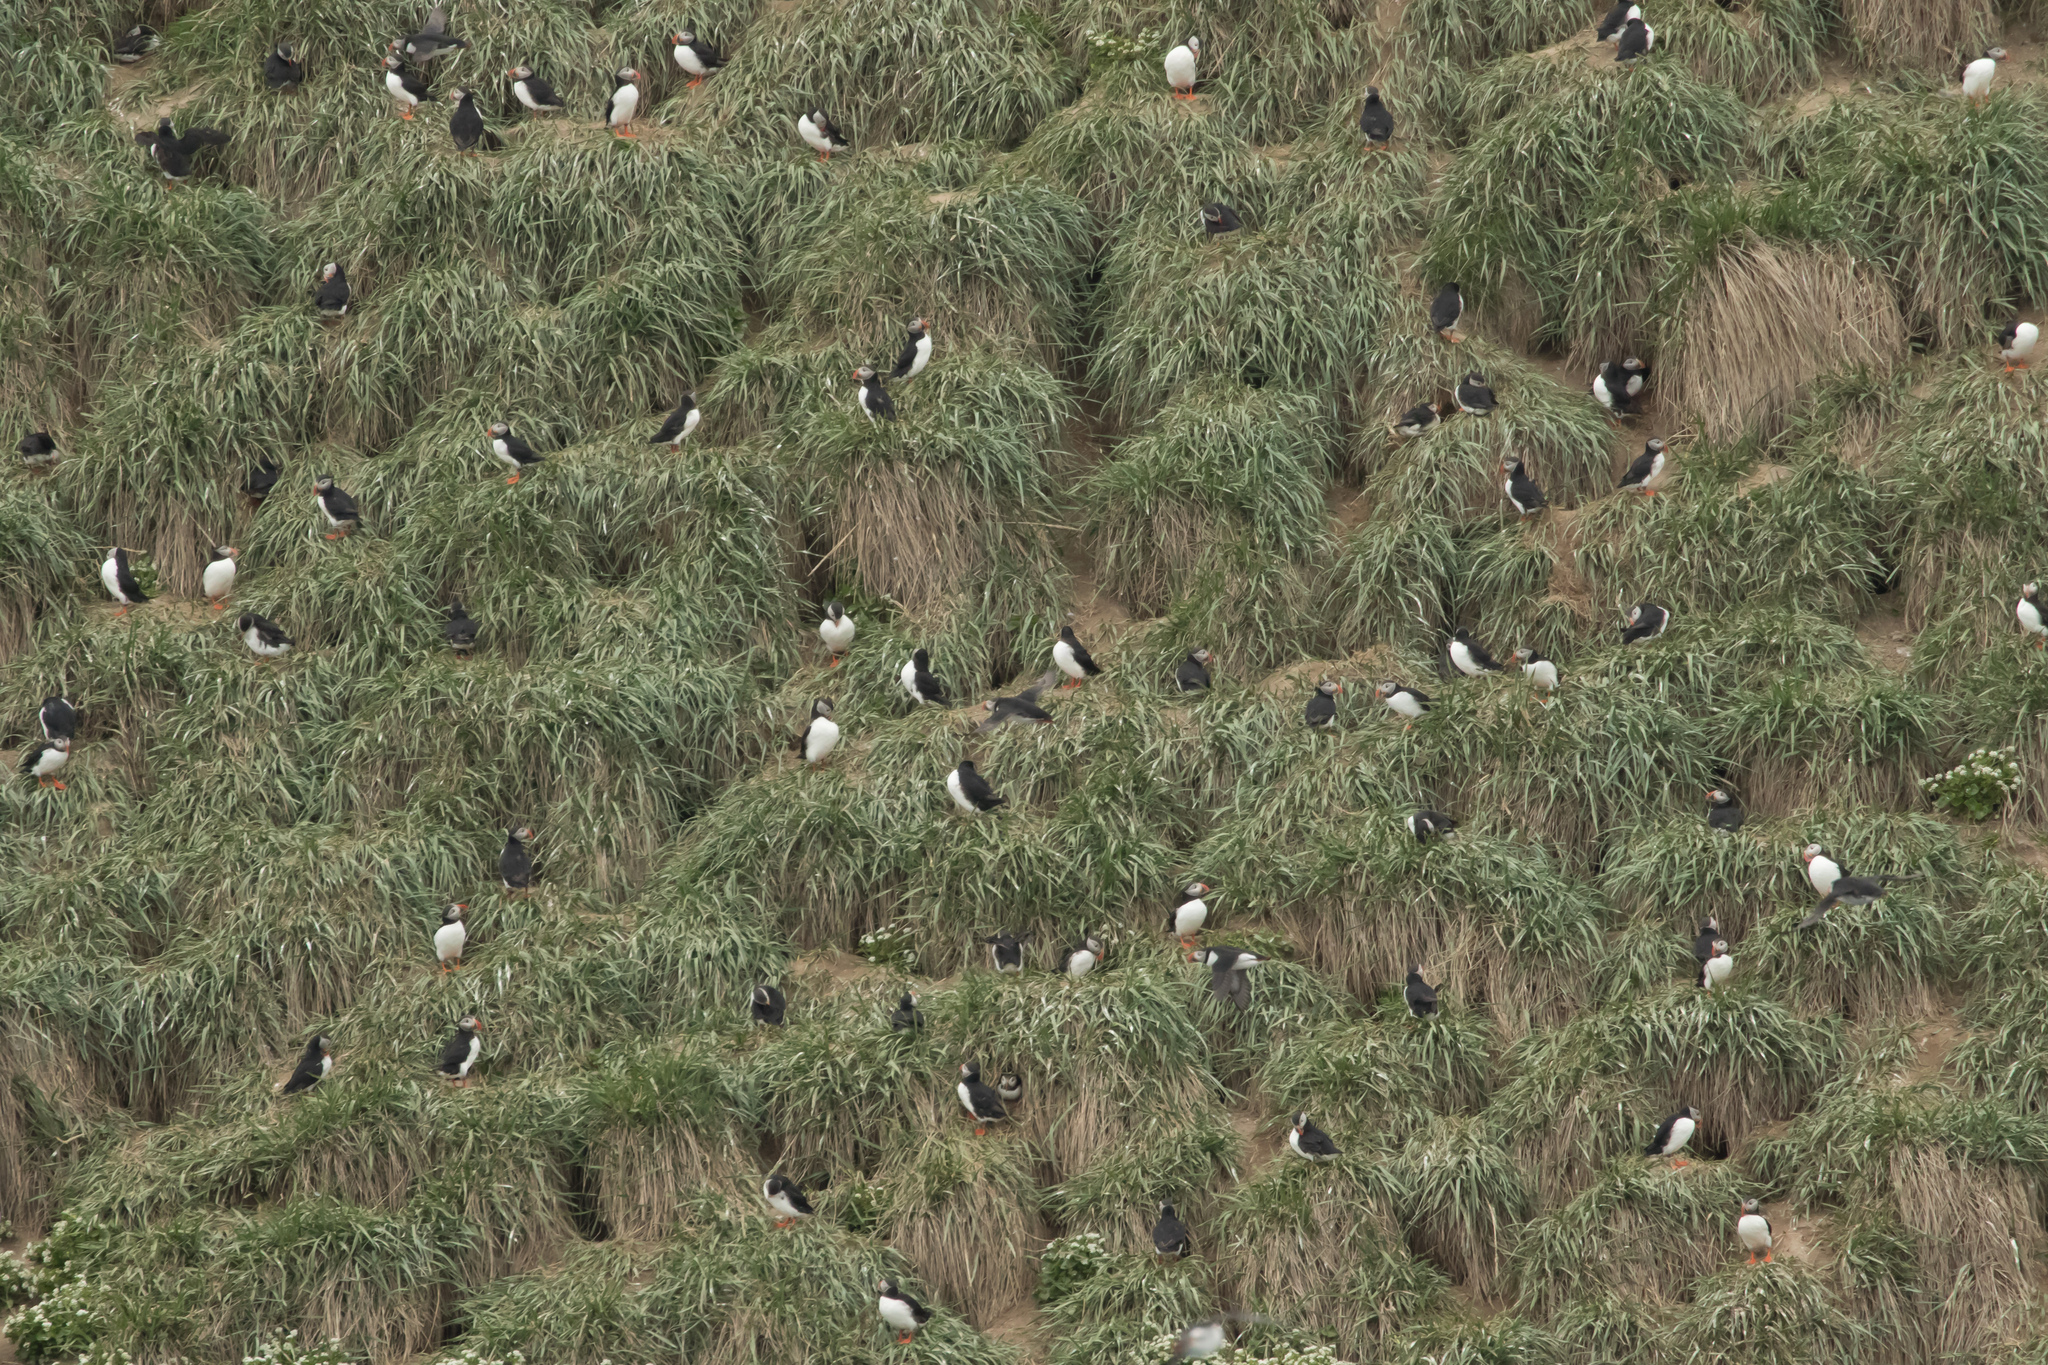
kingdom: Animalia
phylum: Chordata
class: Aves
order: Charadriiformes
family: Alcidae
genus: Fratercula
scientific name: Fratercula arctica
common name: Atlantic puffin
